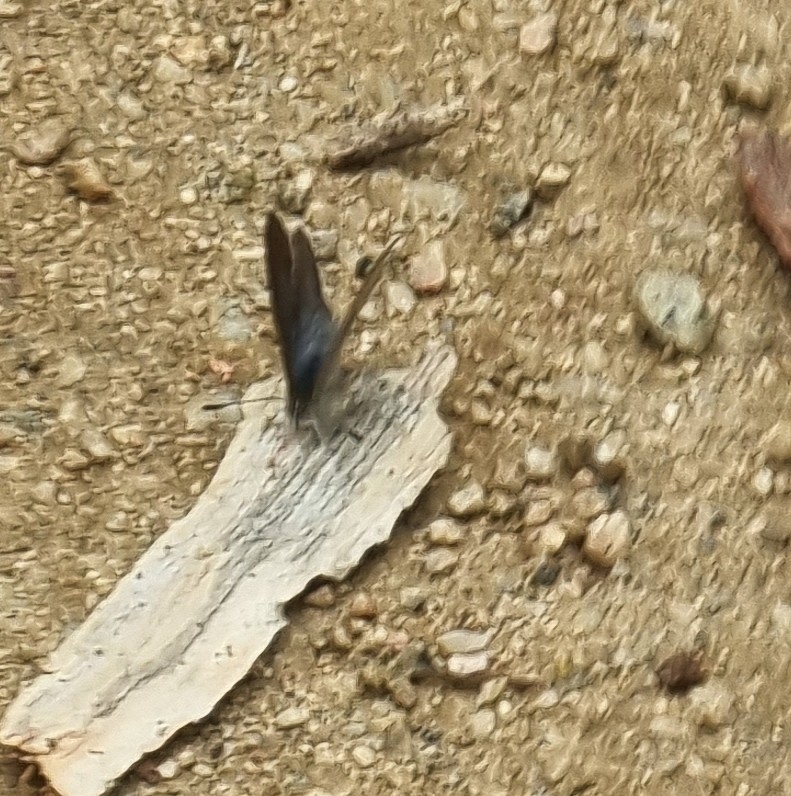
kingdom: Animalia
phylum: Arthropoda
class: Insecta
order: Lepidoptera
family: Lycaenidae
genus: Zizina
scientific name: Zizina labradus
